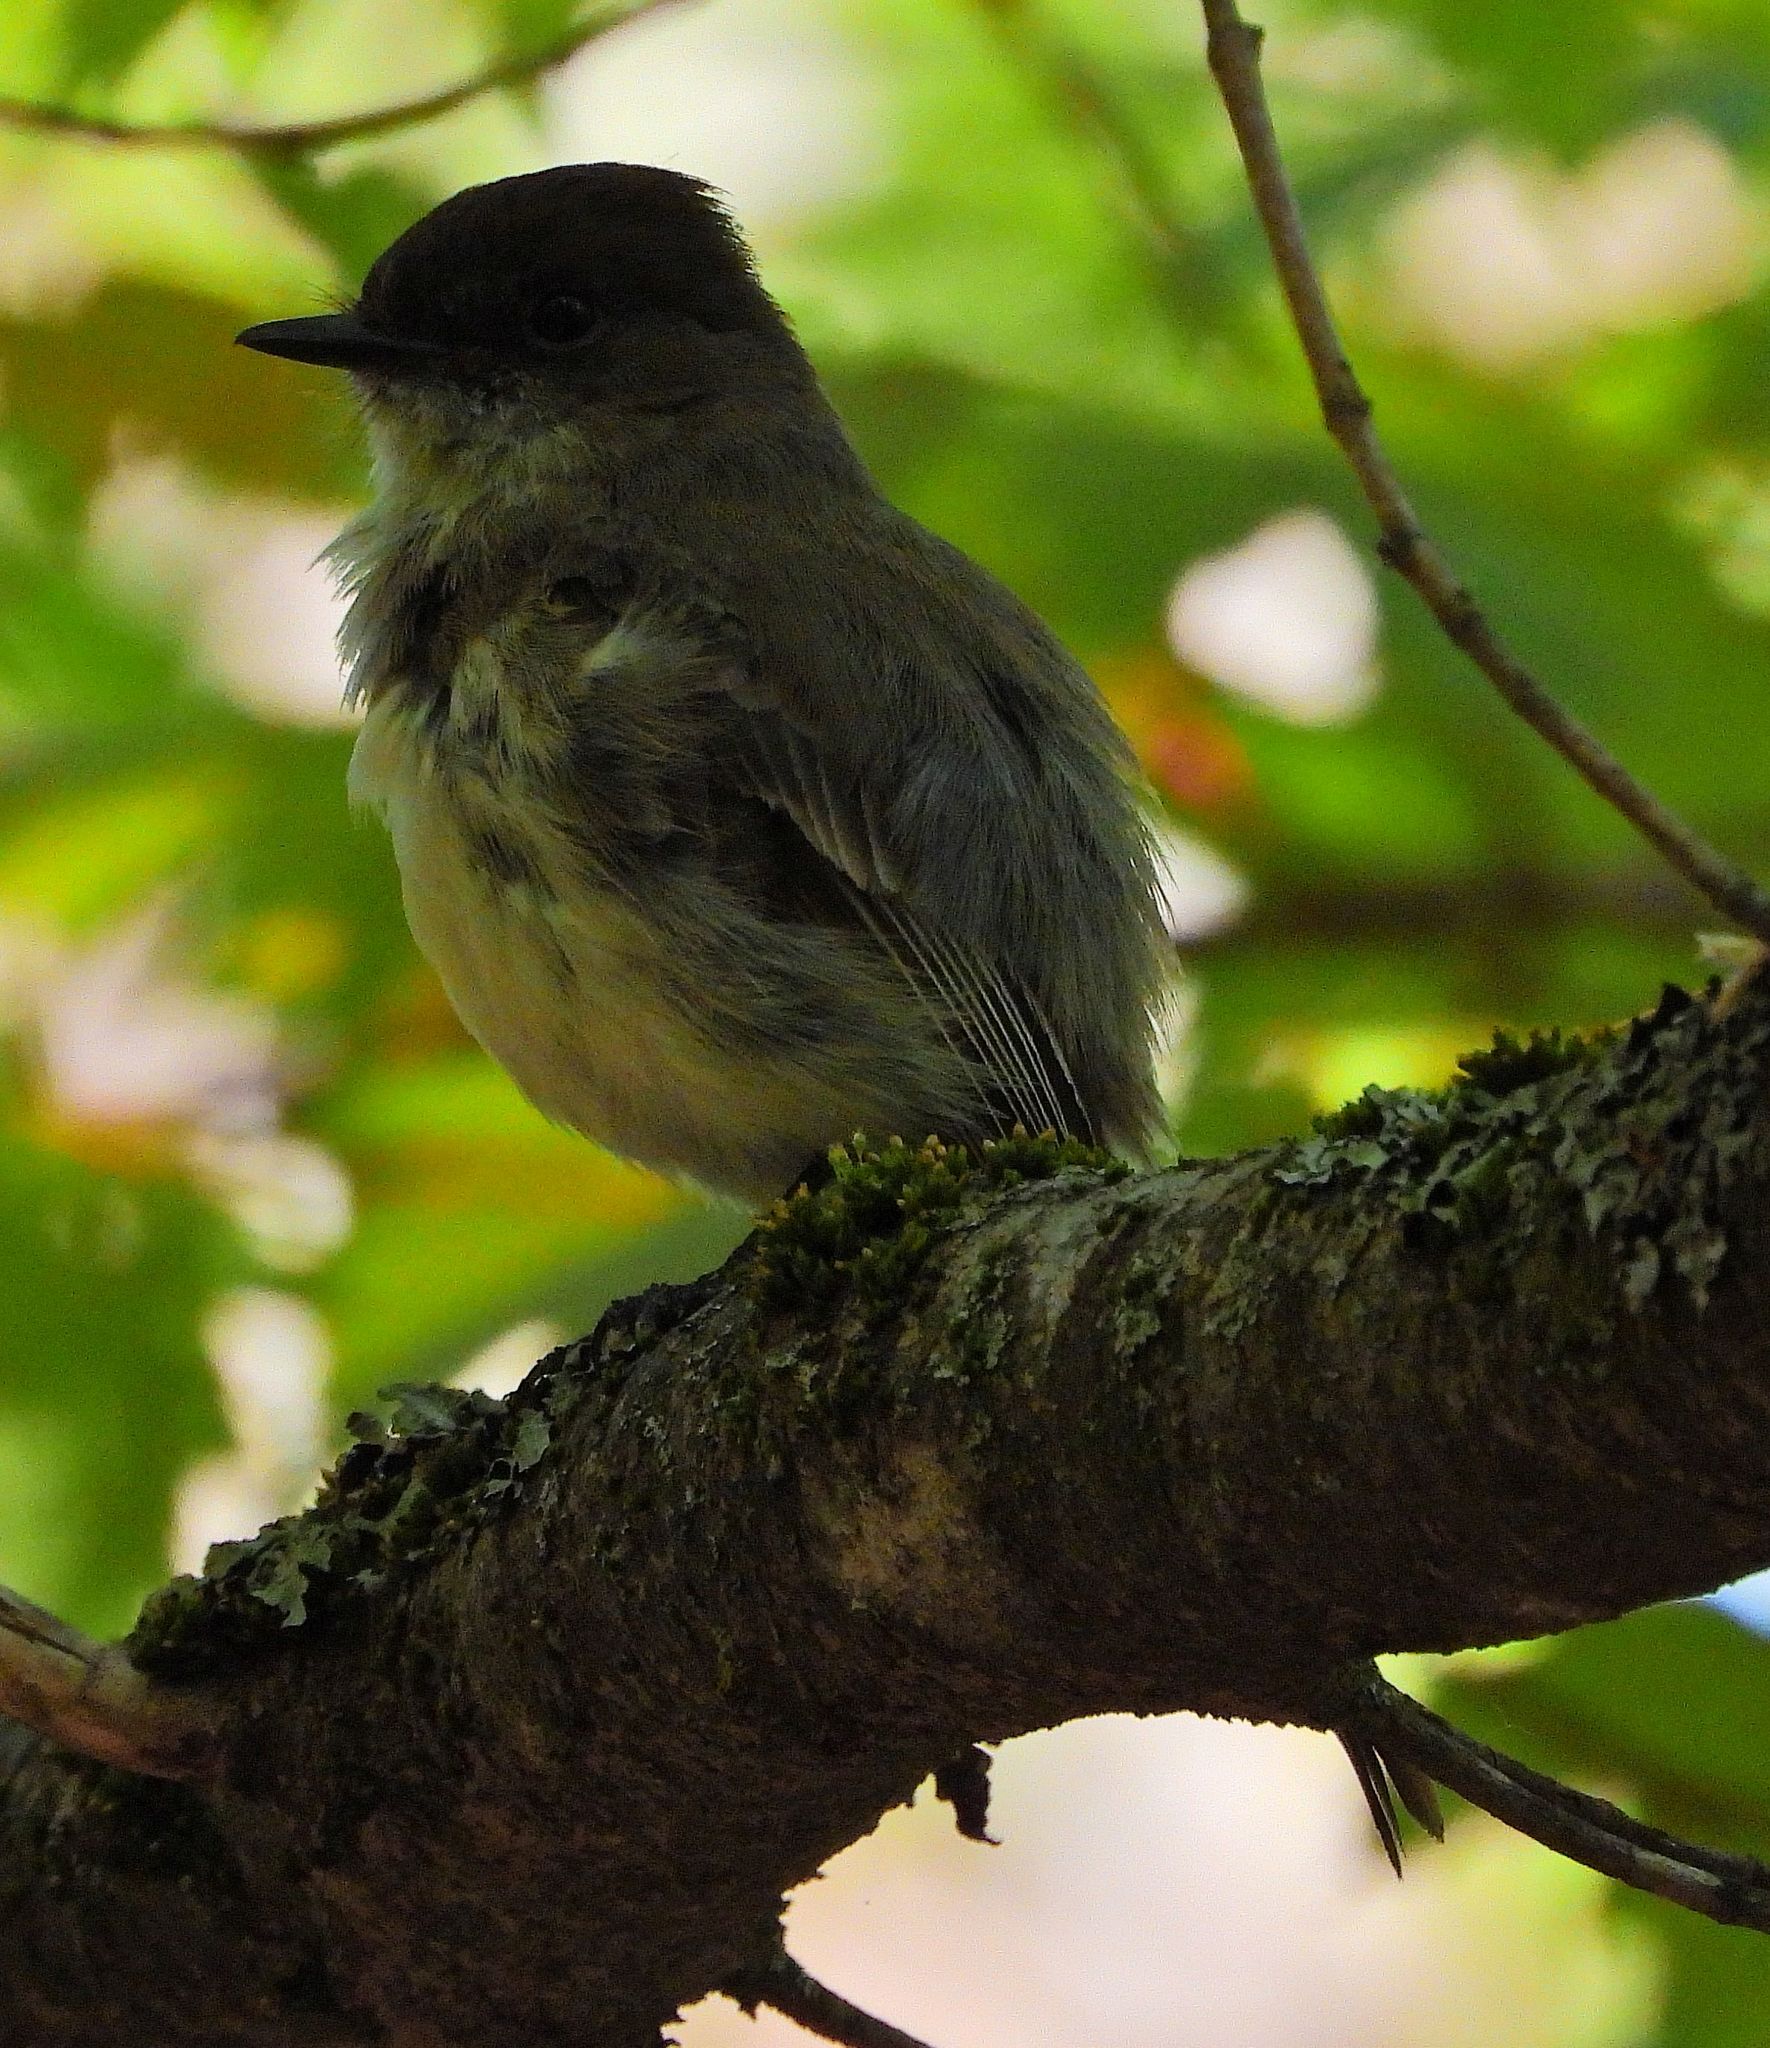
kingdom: Animalia
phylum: Chordata
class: Aves
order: Passeriformes
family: Tyrannidae
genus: Sayornis
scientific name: Sayornis phoebe
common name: Eastern phoebe
